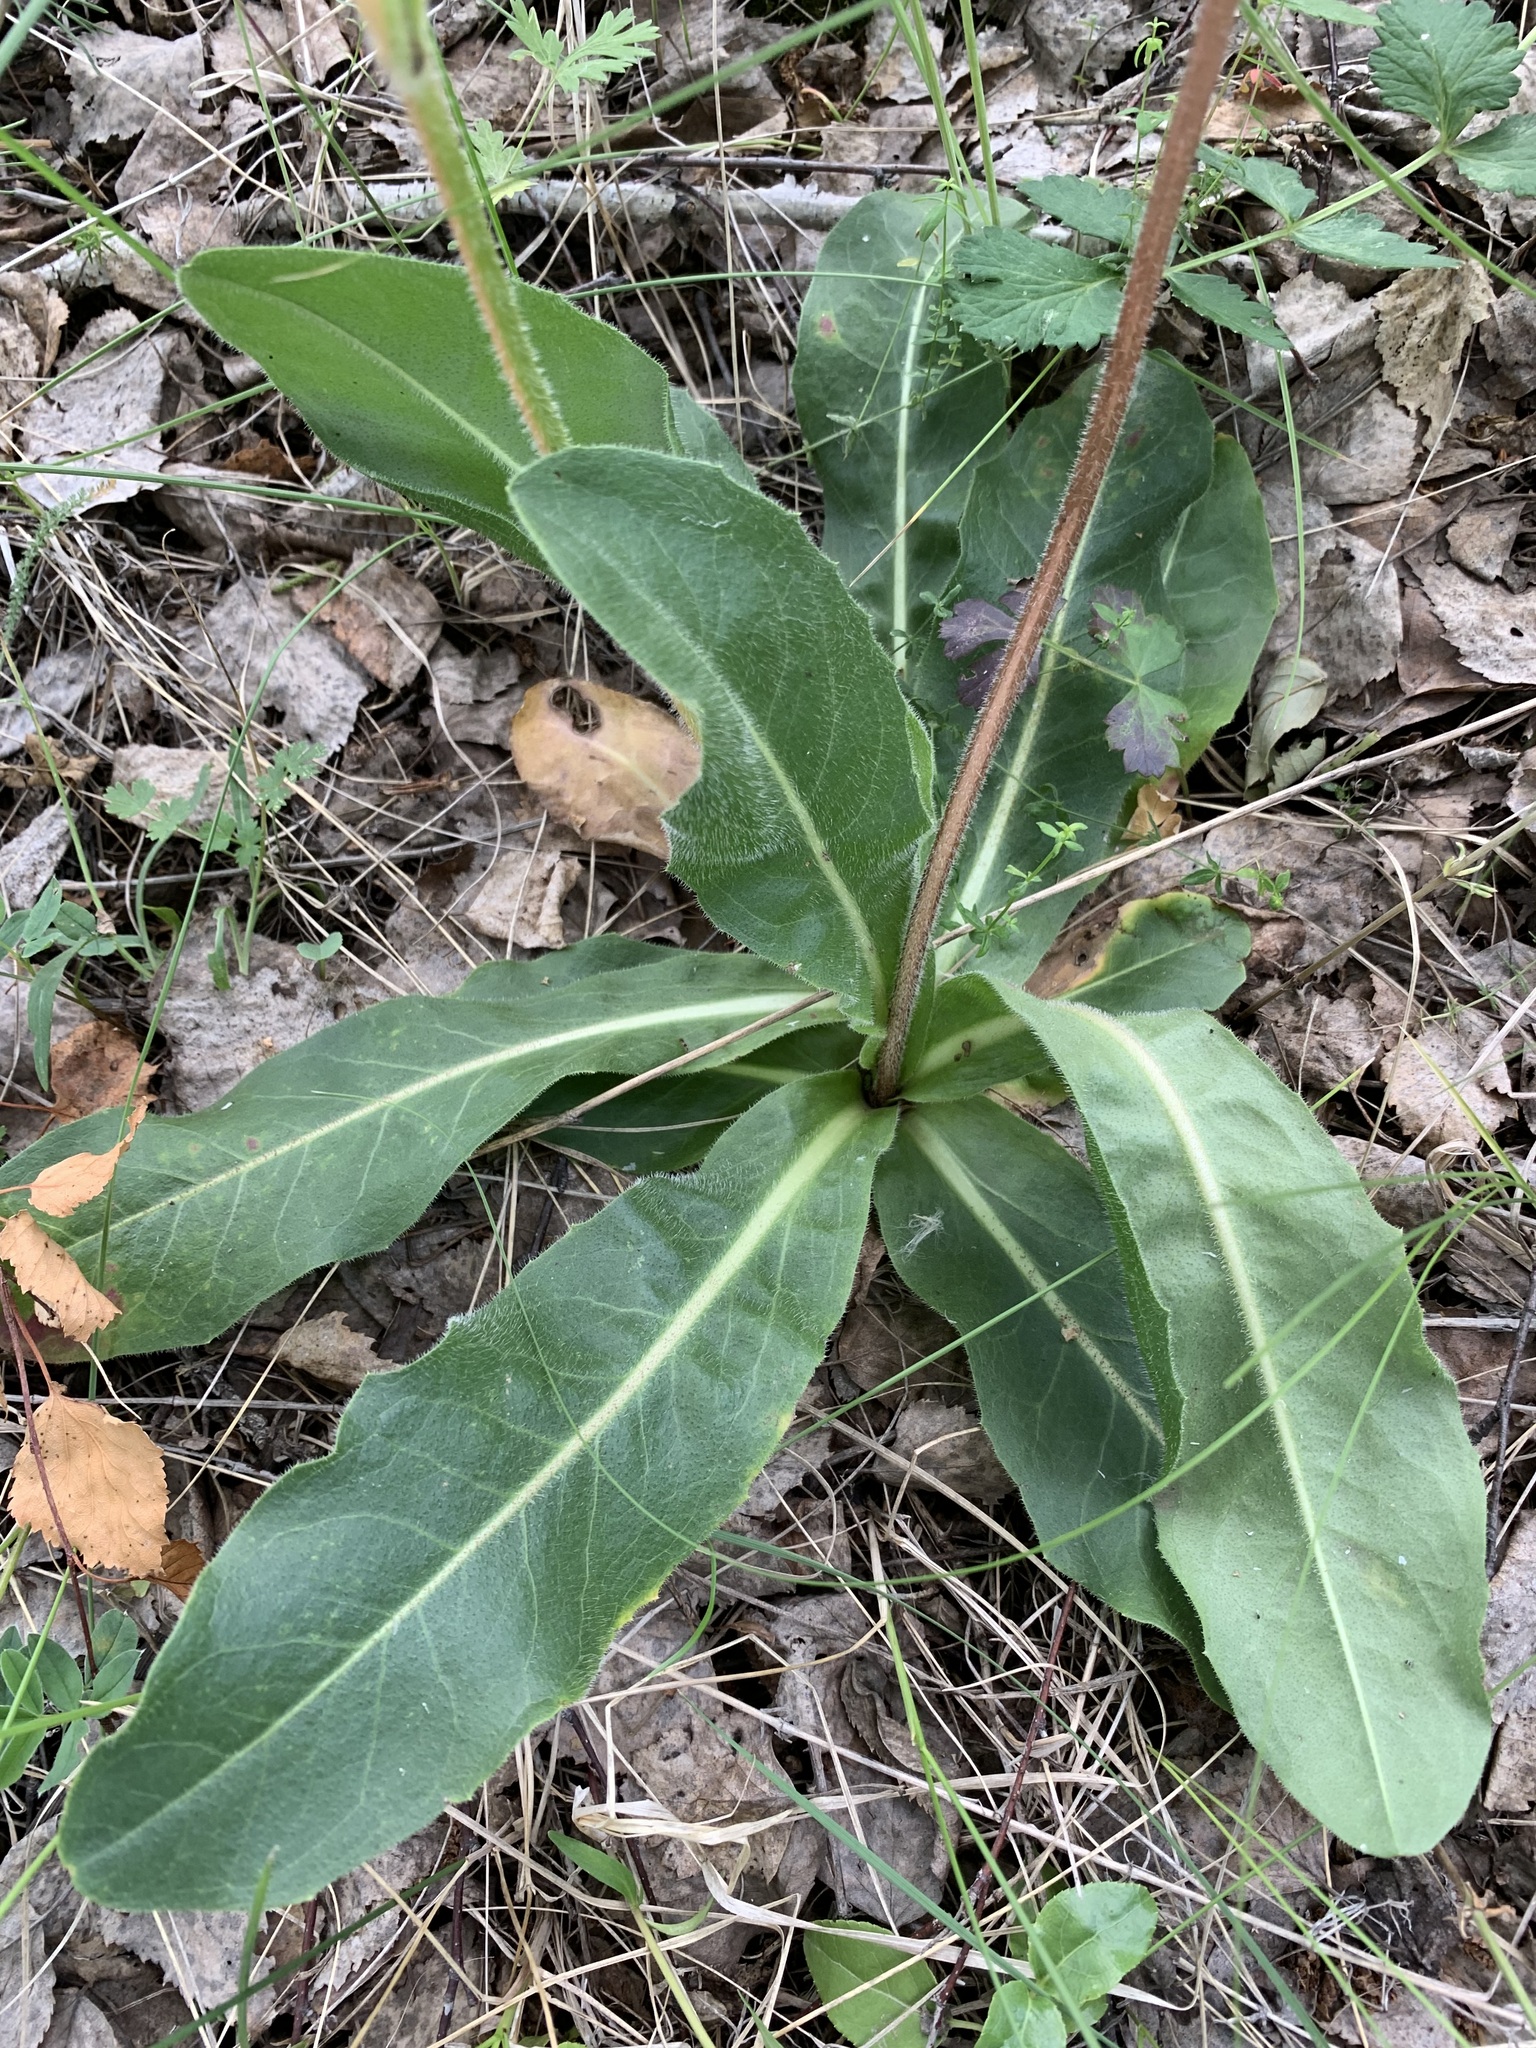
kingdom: Plantae
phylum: Tracheophyta
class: Magnoliopsida
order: Asterales
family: Asteraceae
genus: Trommsdorffia
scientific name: Trommsdorffia maculata
